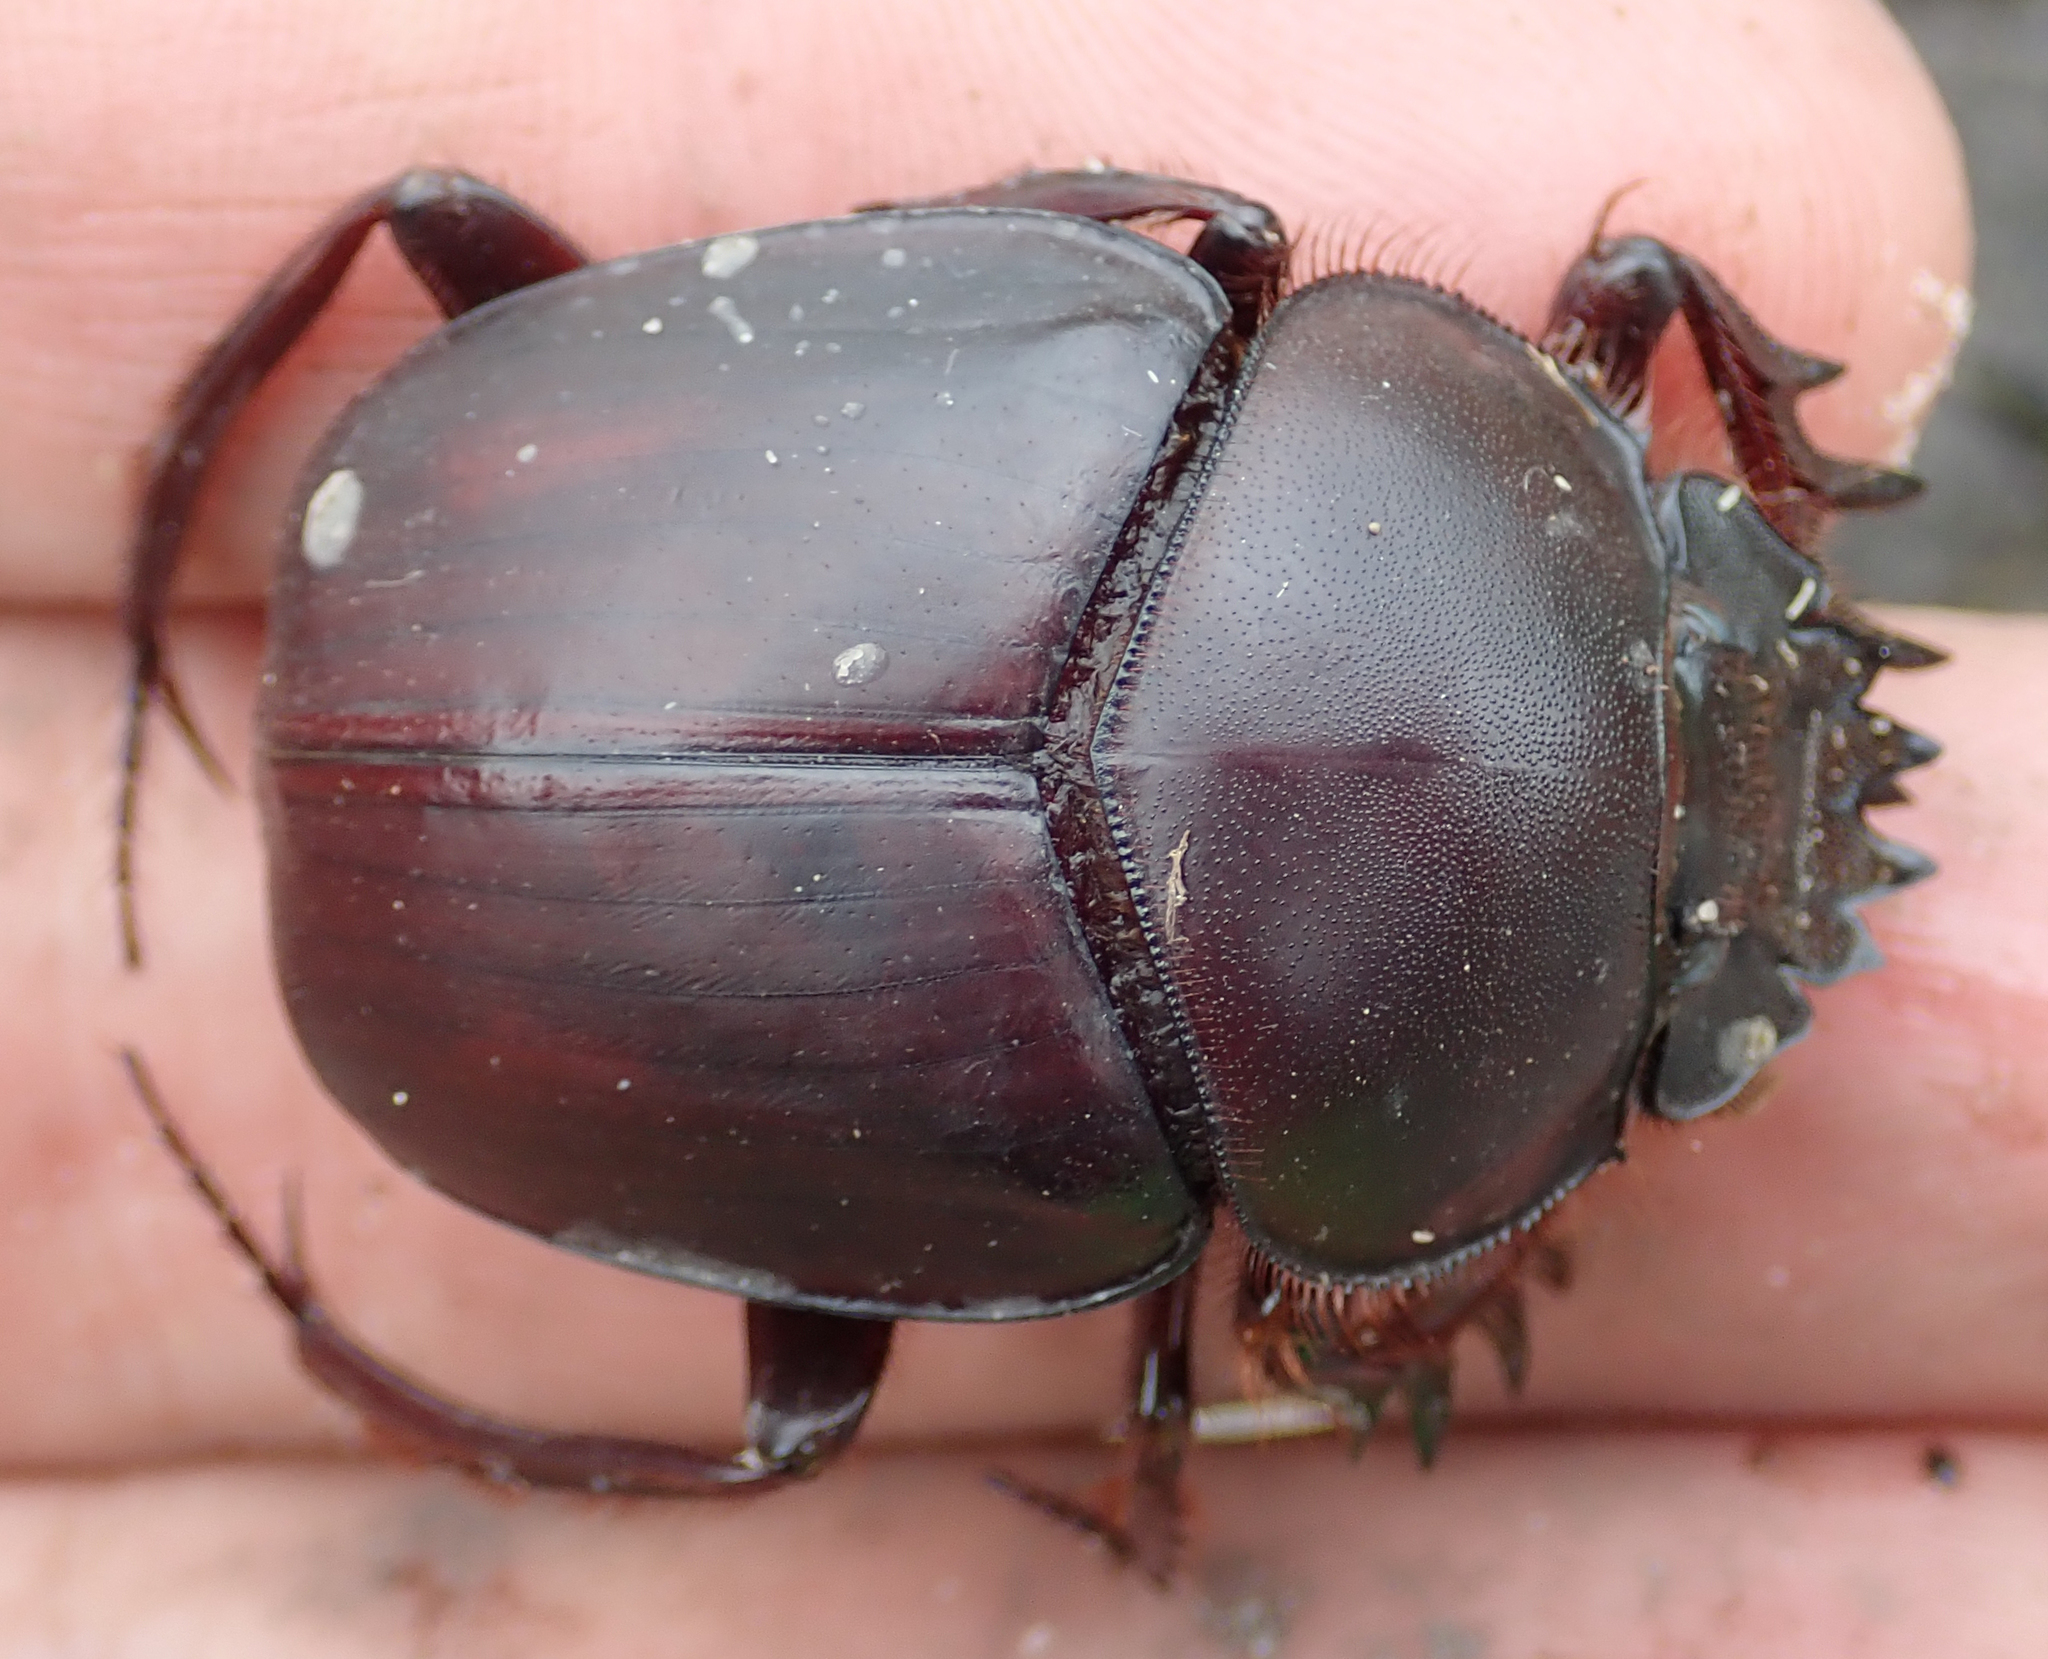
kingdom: Animalia
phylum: Arthropoda
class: Insecta
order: Coleoptera
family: Scarabaeidae
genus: Scarabaeus
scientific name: Scarabaeus goryi
